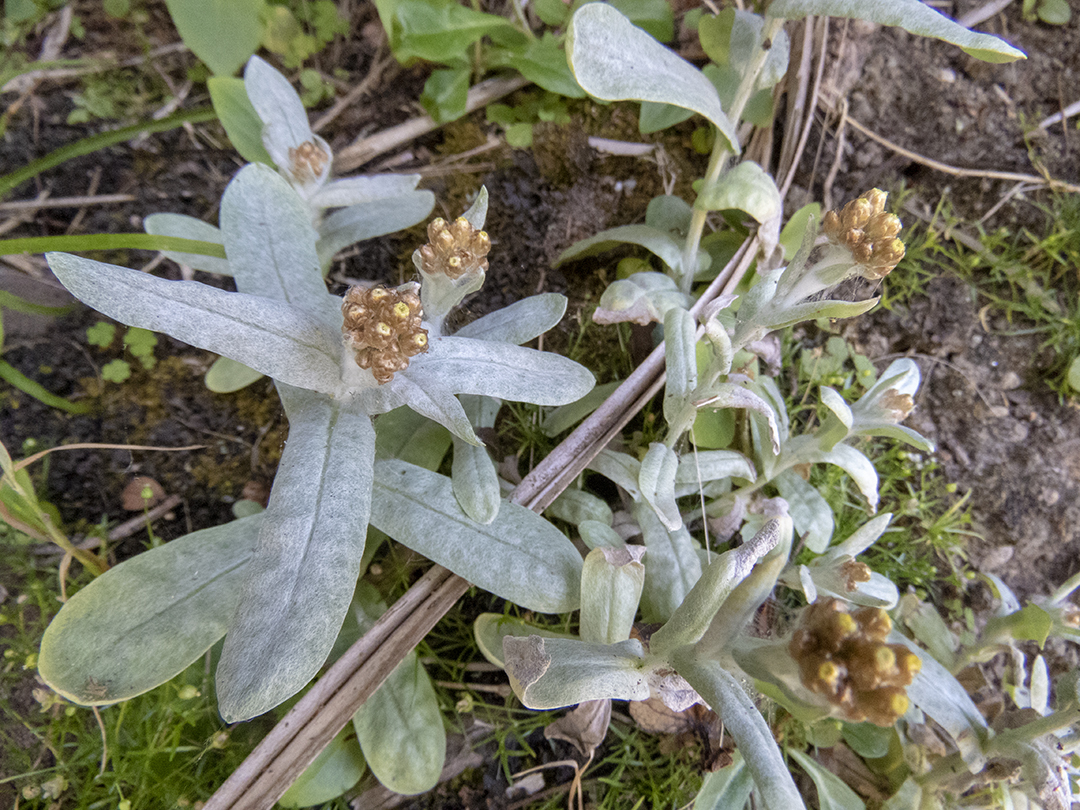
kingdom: Plantae
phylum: Tracheophyta
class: Magnoliopsida
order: Asterales
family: Asteraceae
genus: Pseudognaphalium
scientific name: Pseudognaphalium
